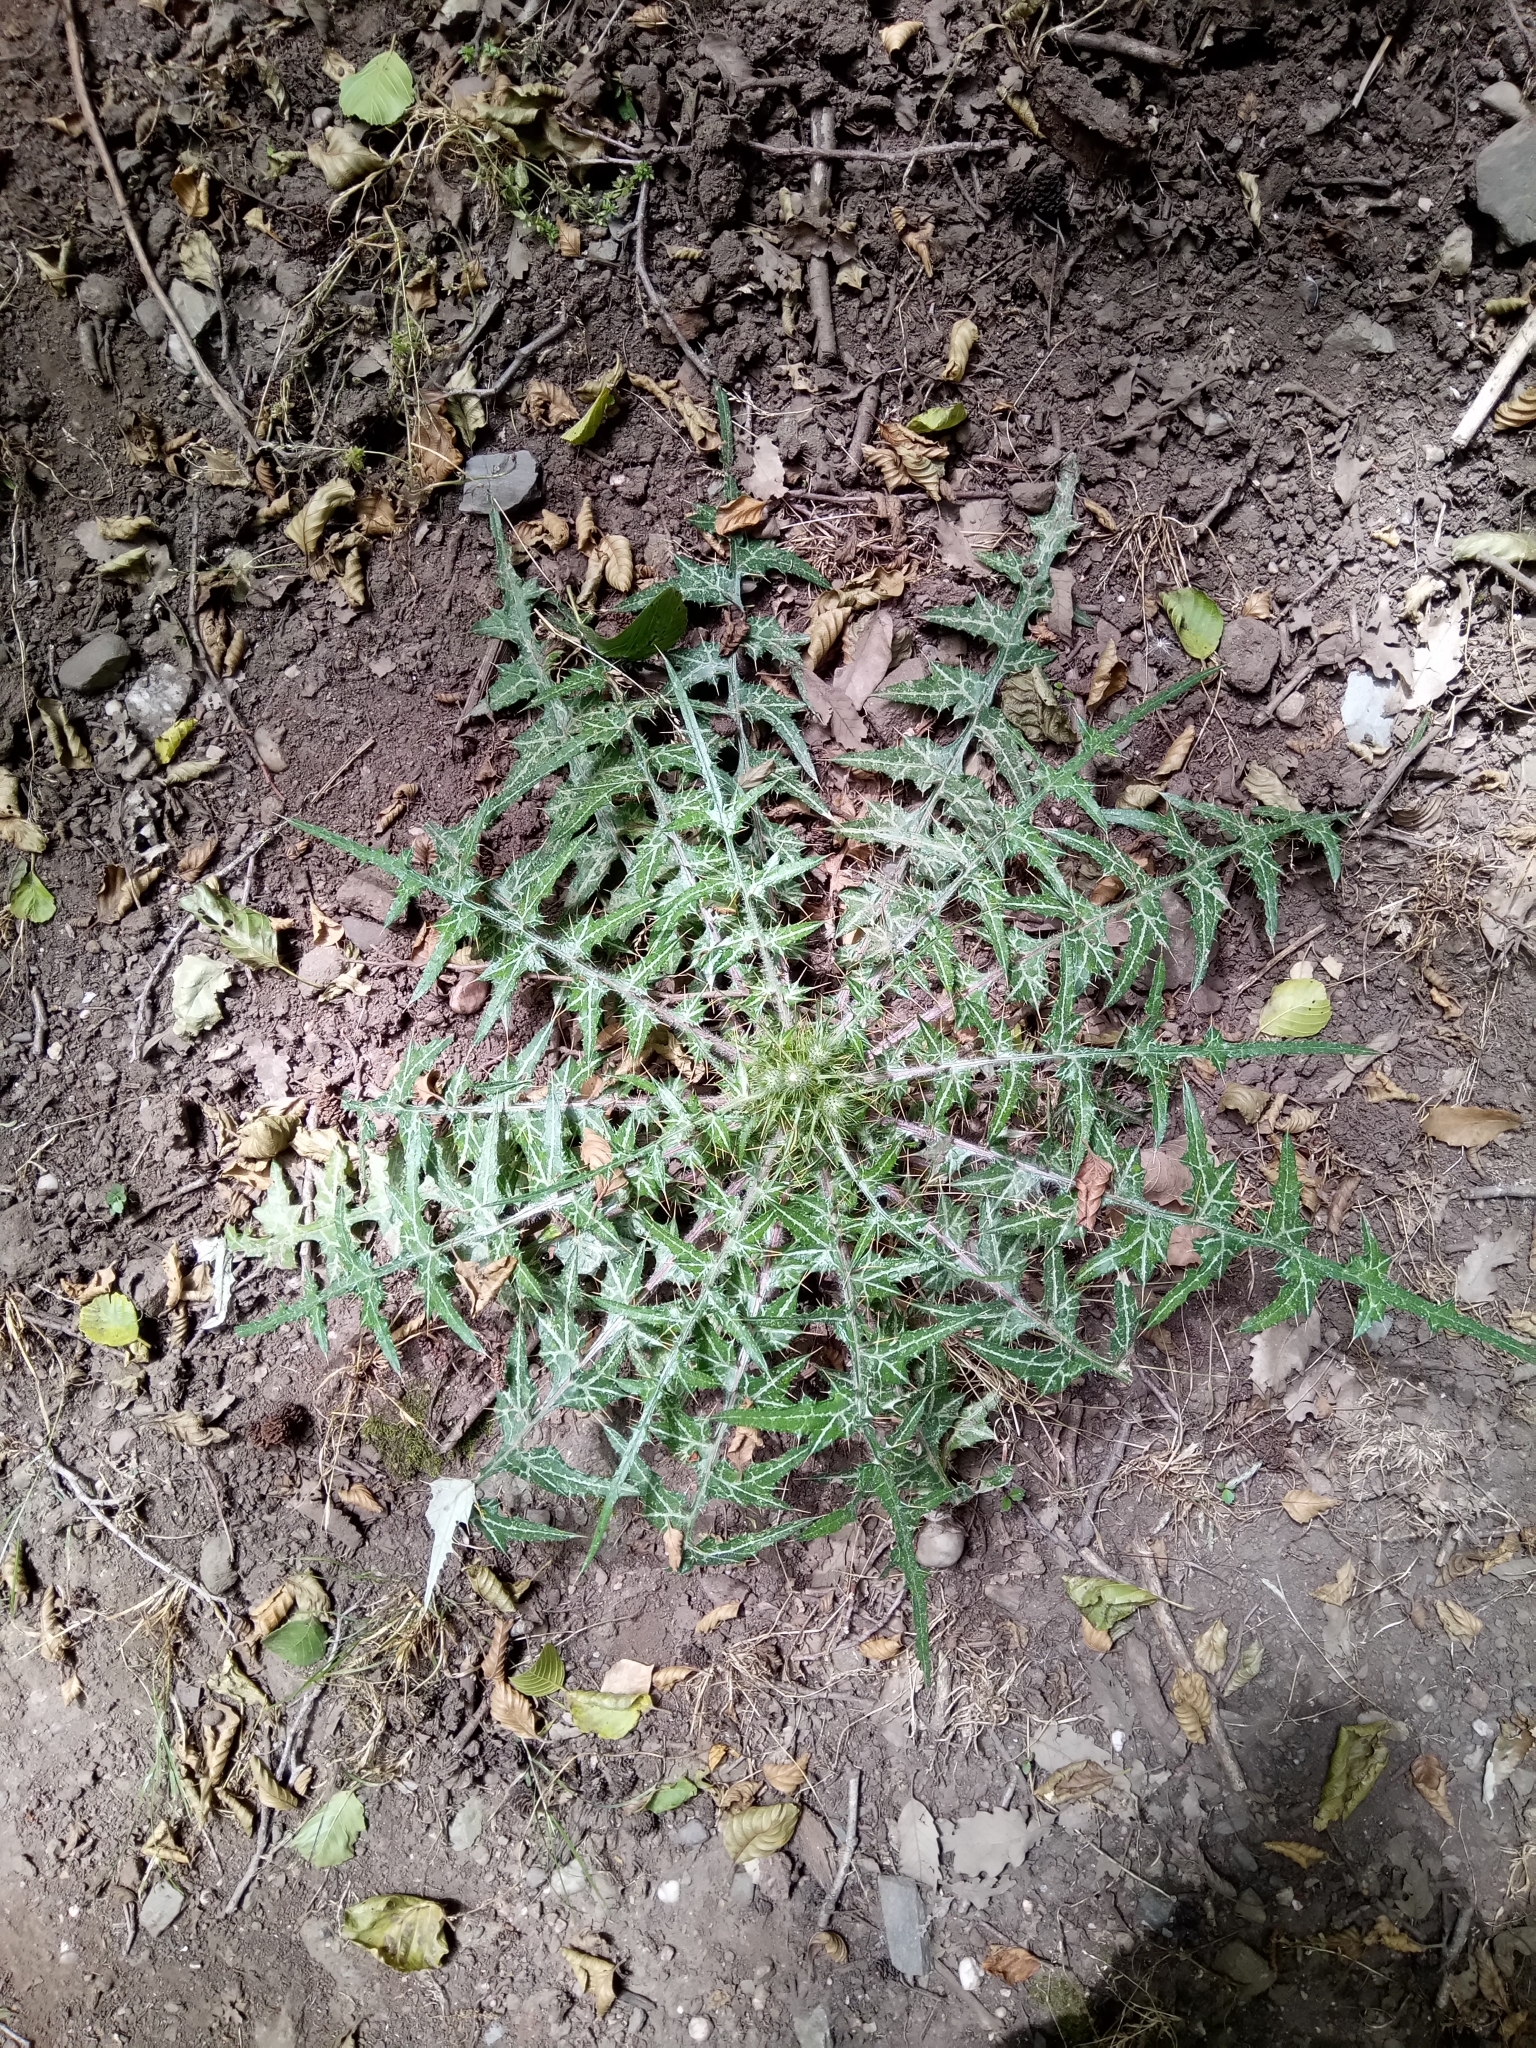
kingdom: Plantae
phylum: Tracheophyta
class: Magnoliopsida
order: Asterales
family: Asteraceae
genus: Galactites
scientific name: Galactites mutabilis
